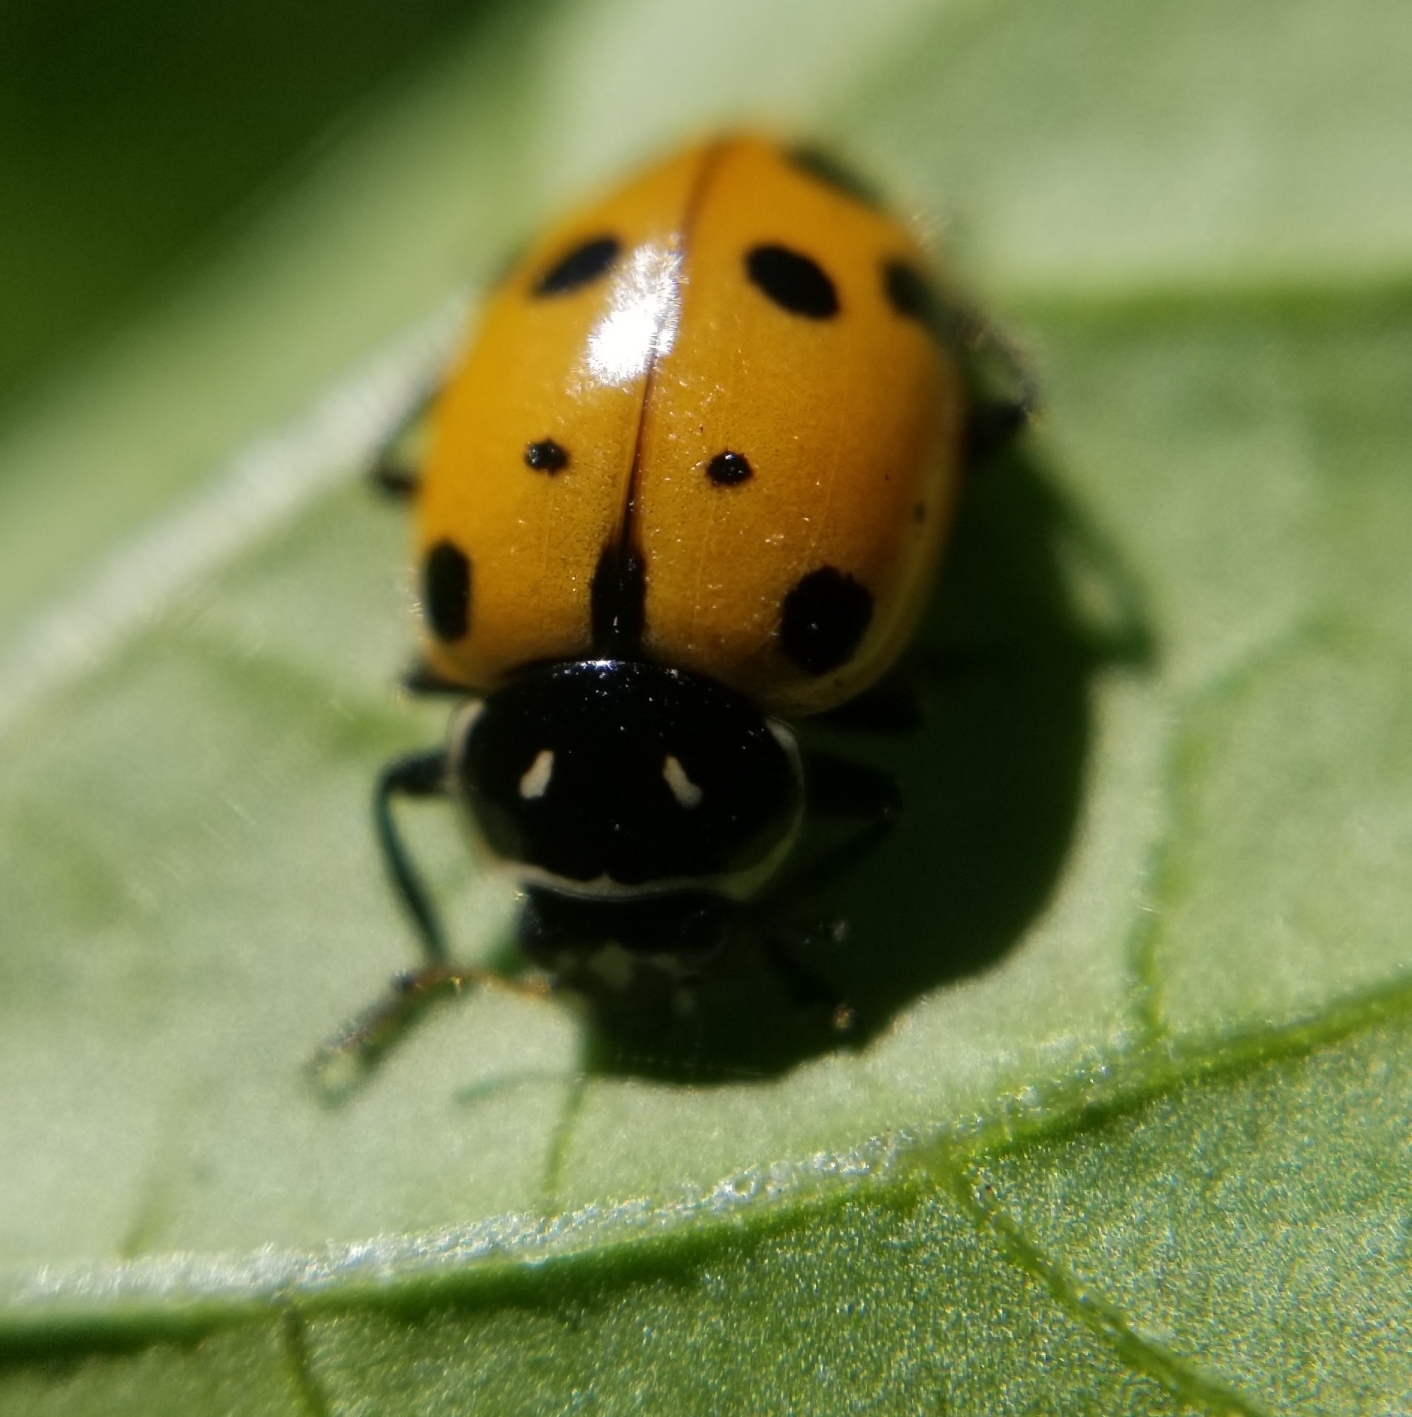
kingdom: Animalia
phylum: Arthropoda
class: Insecta
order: Coleoptera
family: Coccinellidae
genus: Hippodamia
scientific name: Hippodamia convergens
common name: Convergent lady beetle
